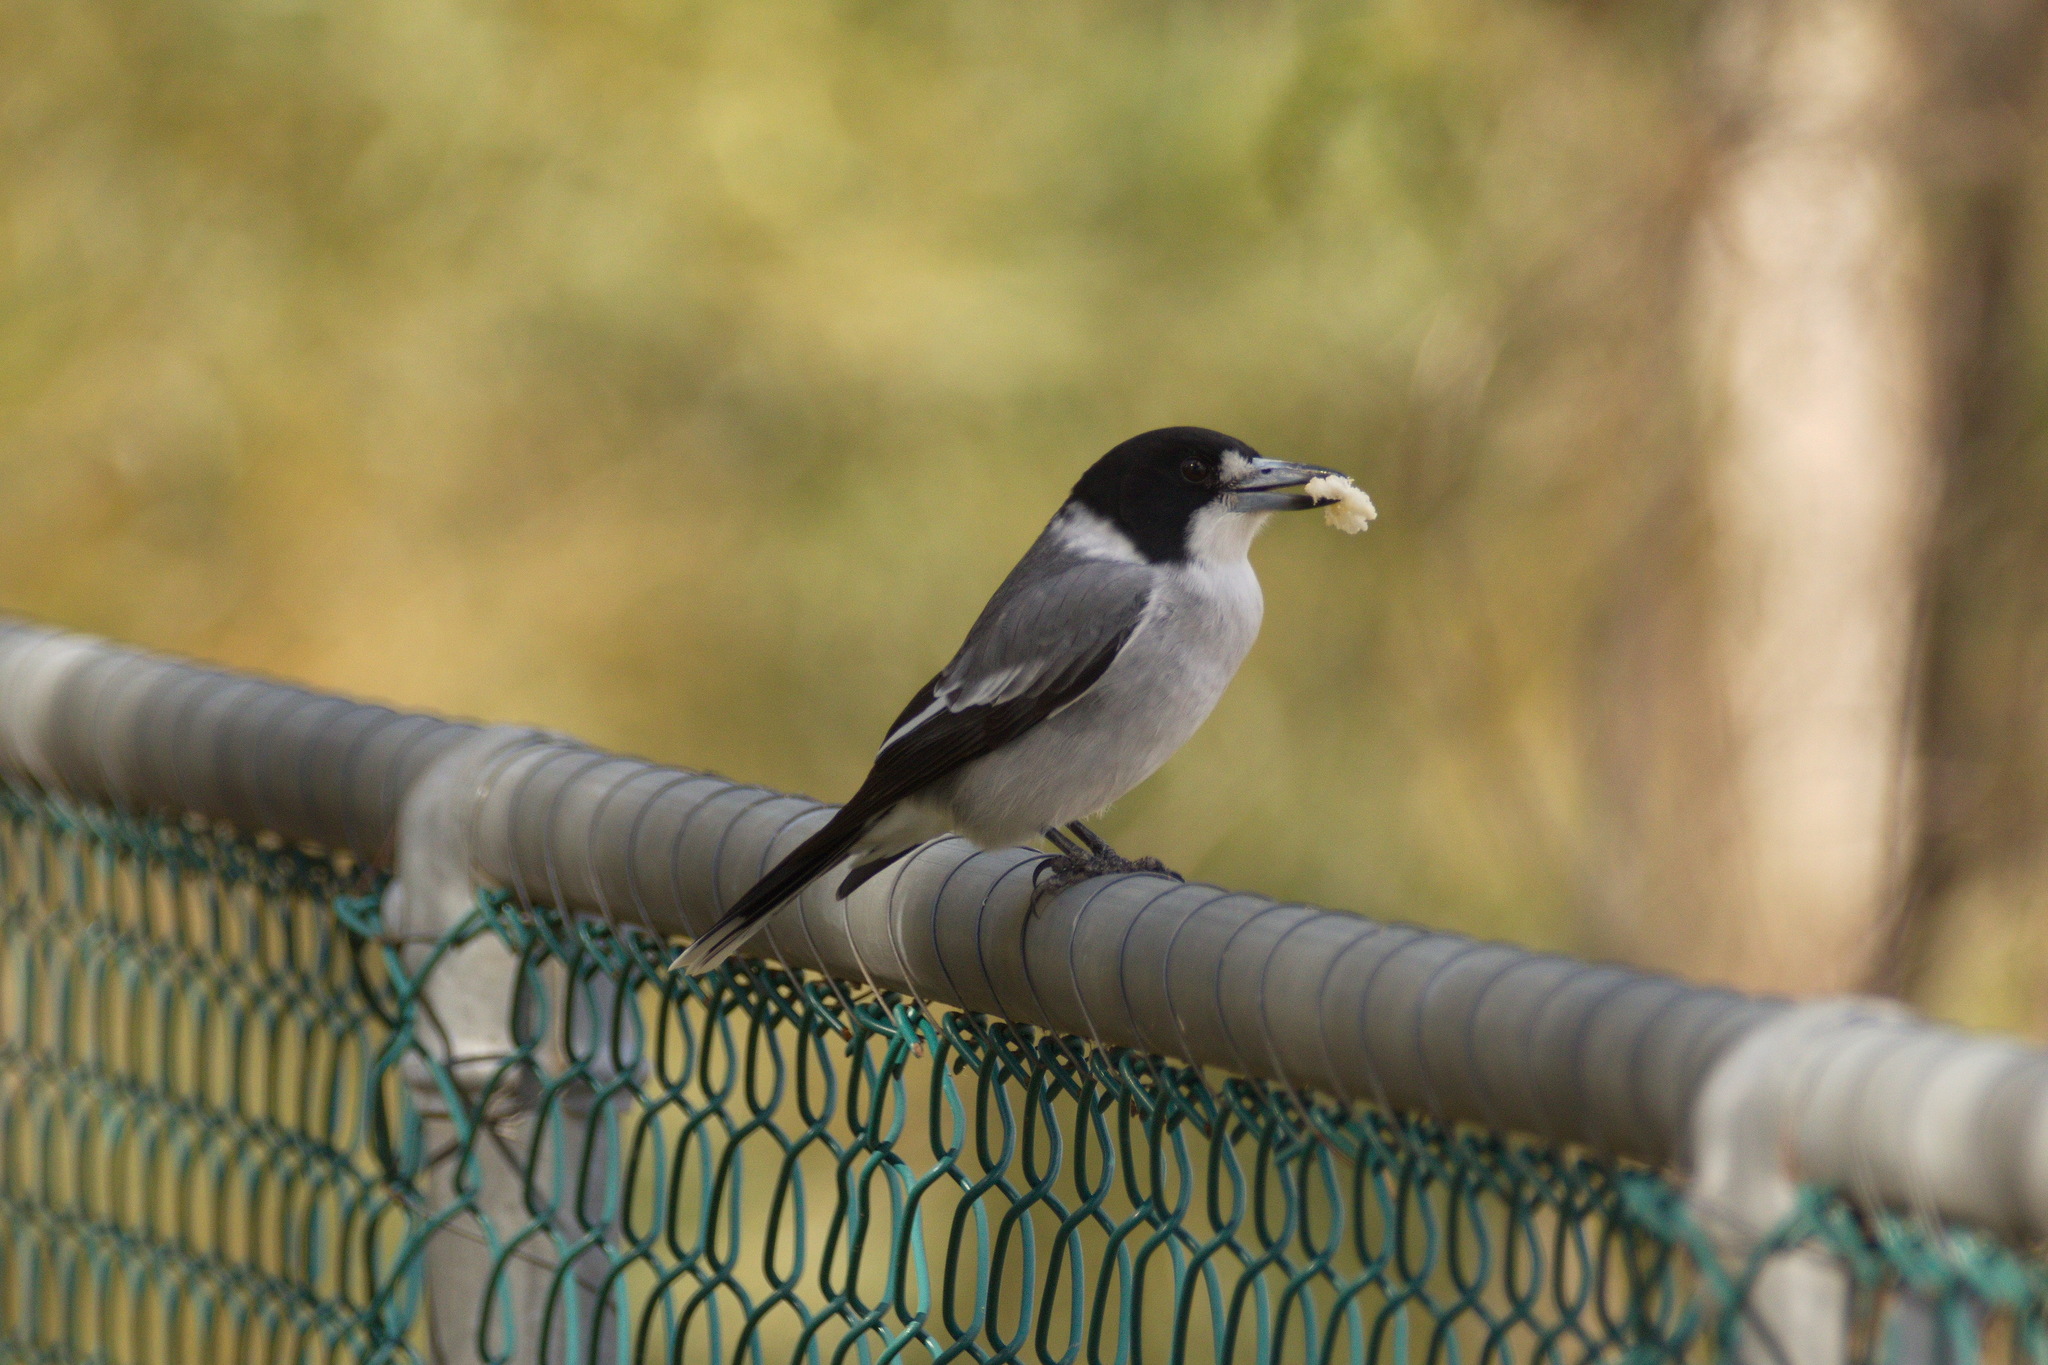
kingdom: Animalia
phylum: Chordata
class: Aves
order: Passeriformes
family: Cracticidae
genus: Cracticus
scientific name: Cracticus torquatus
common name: Grey butcherbird
